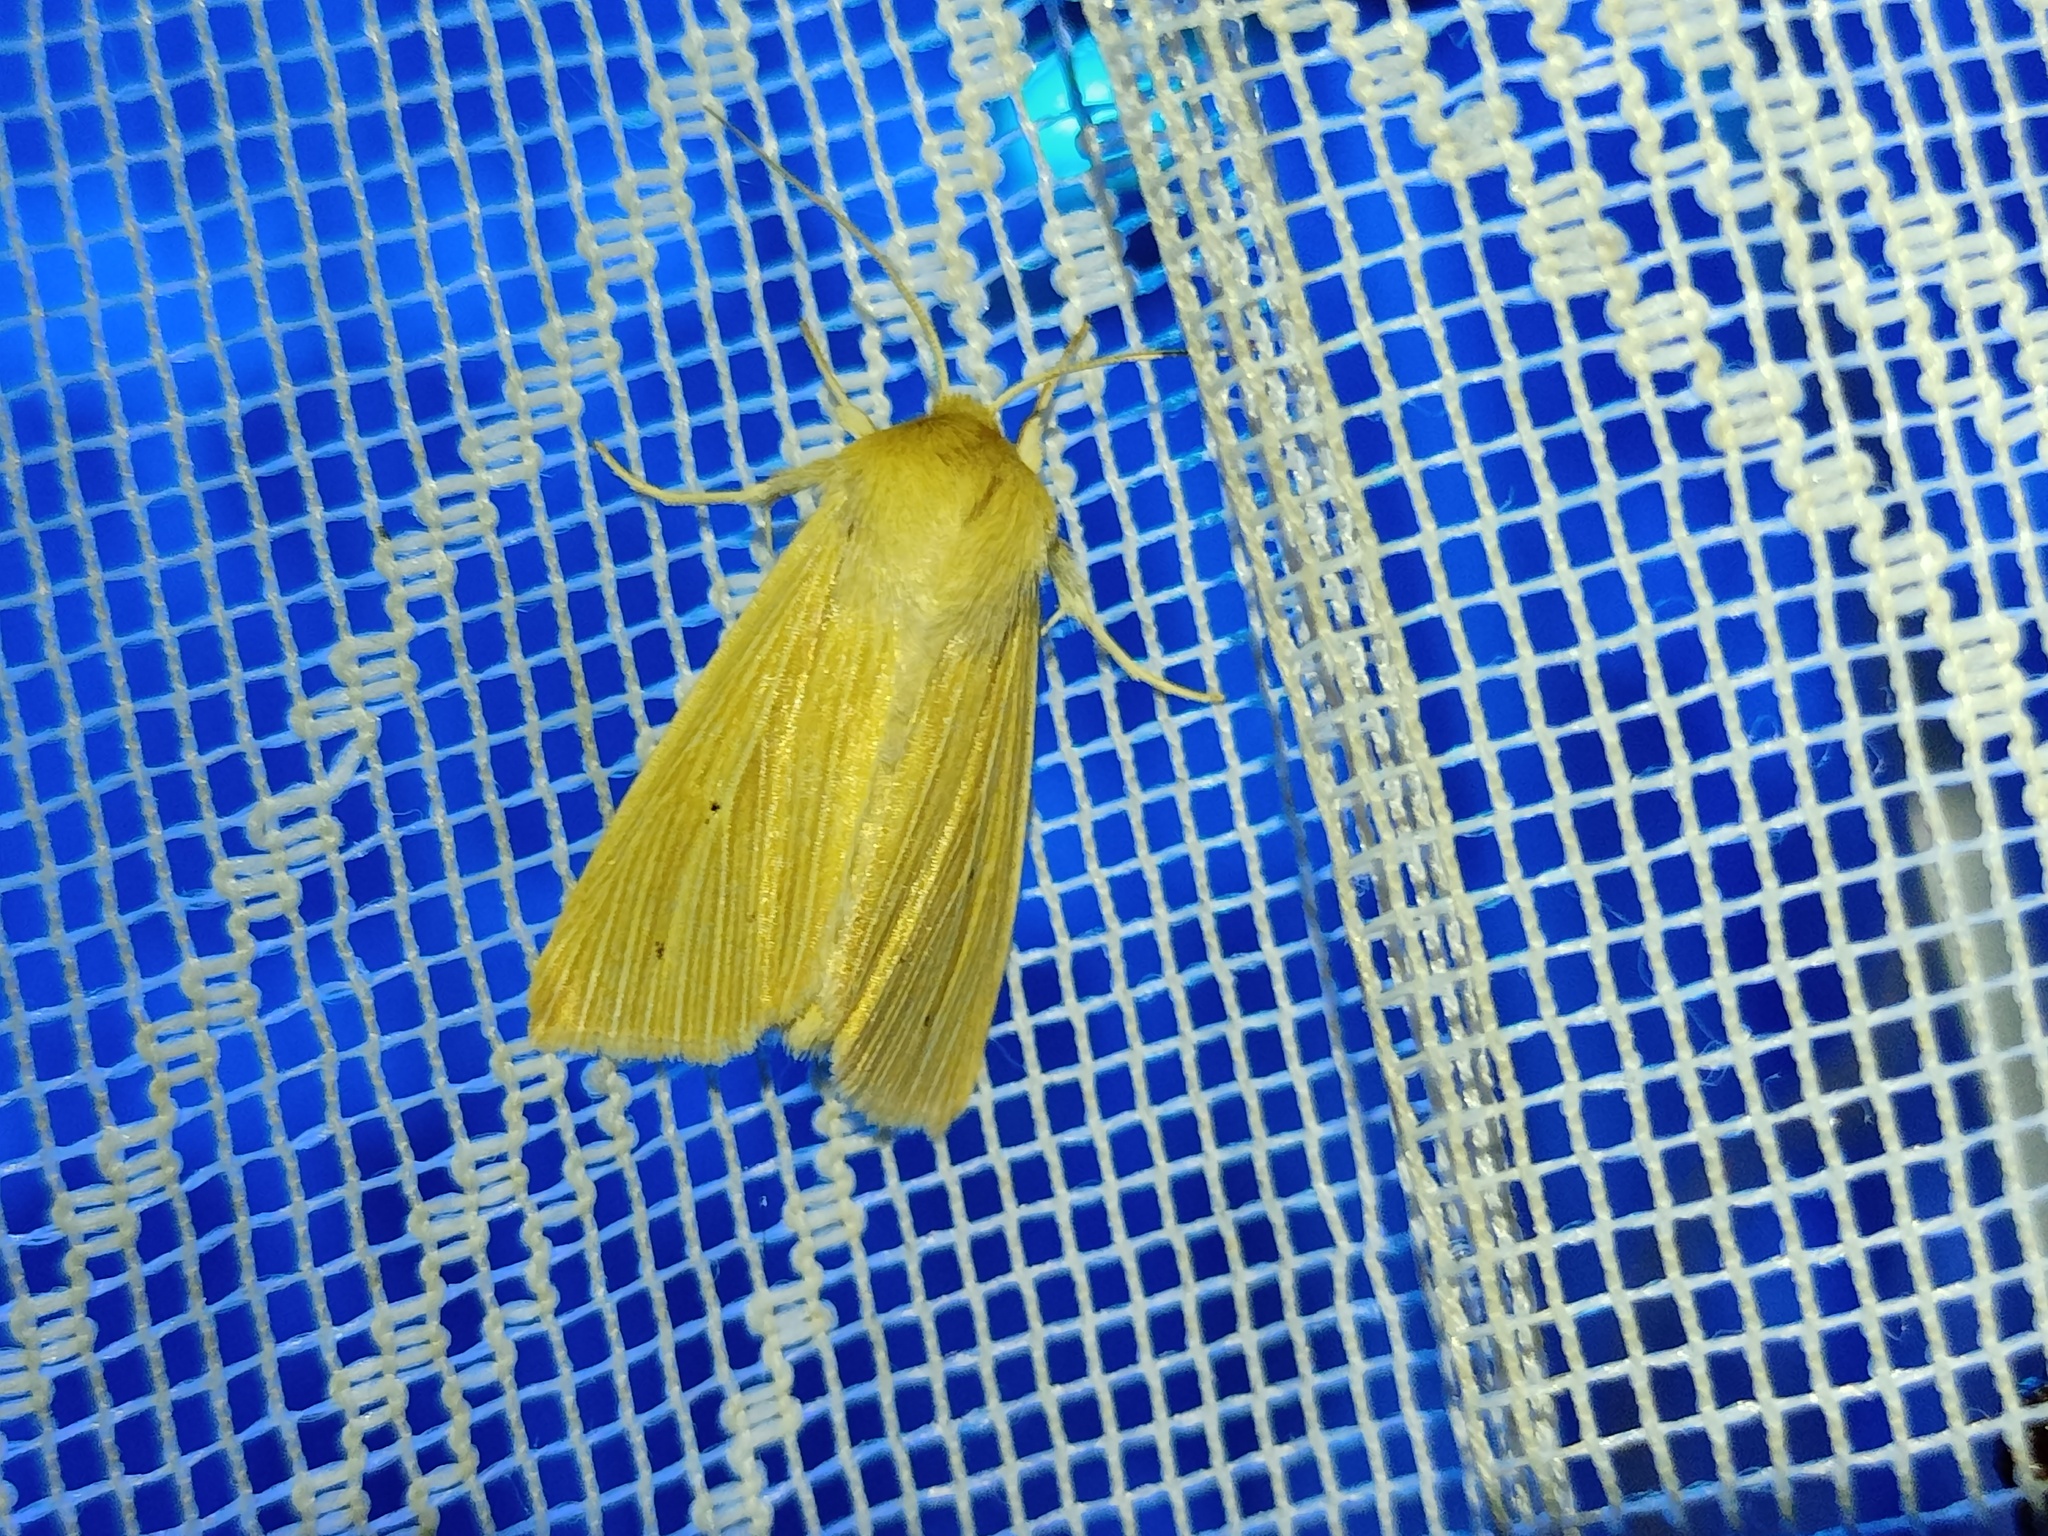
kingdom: Animalia
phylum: Arthropoda
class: Insecta
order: Lepidoptera
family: Noctuidae
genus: Mythimna
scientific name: Mythimna pallens
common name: Common wainscot
